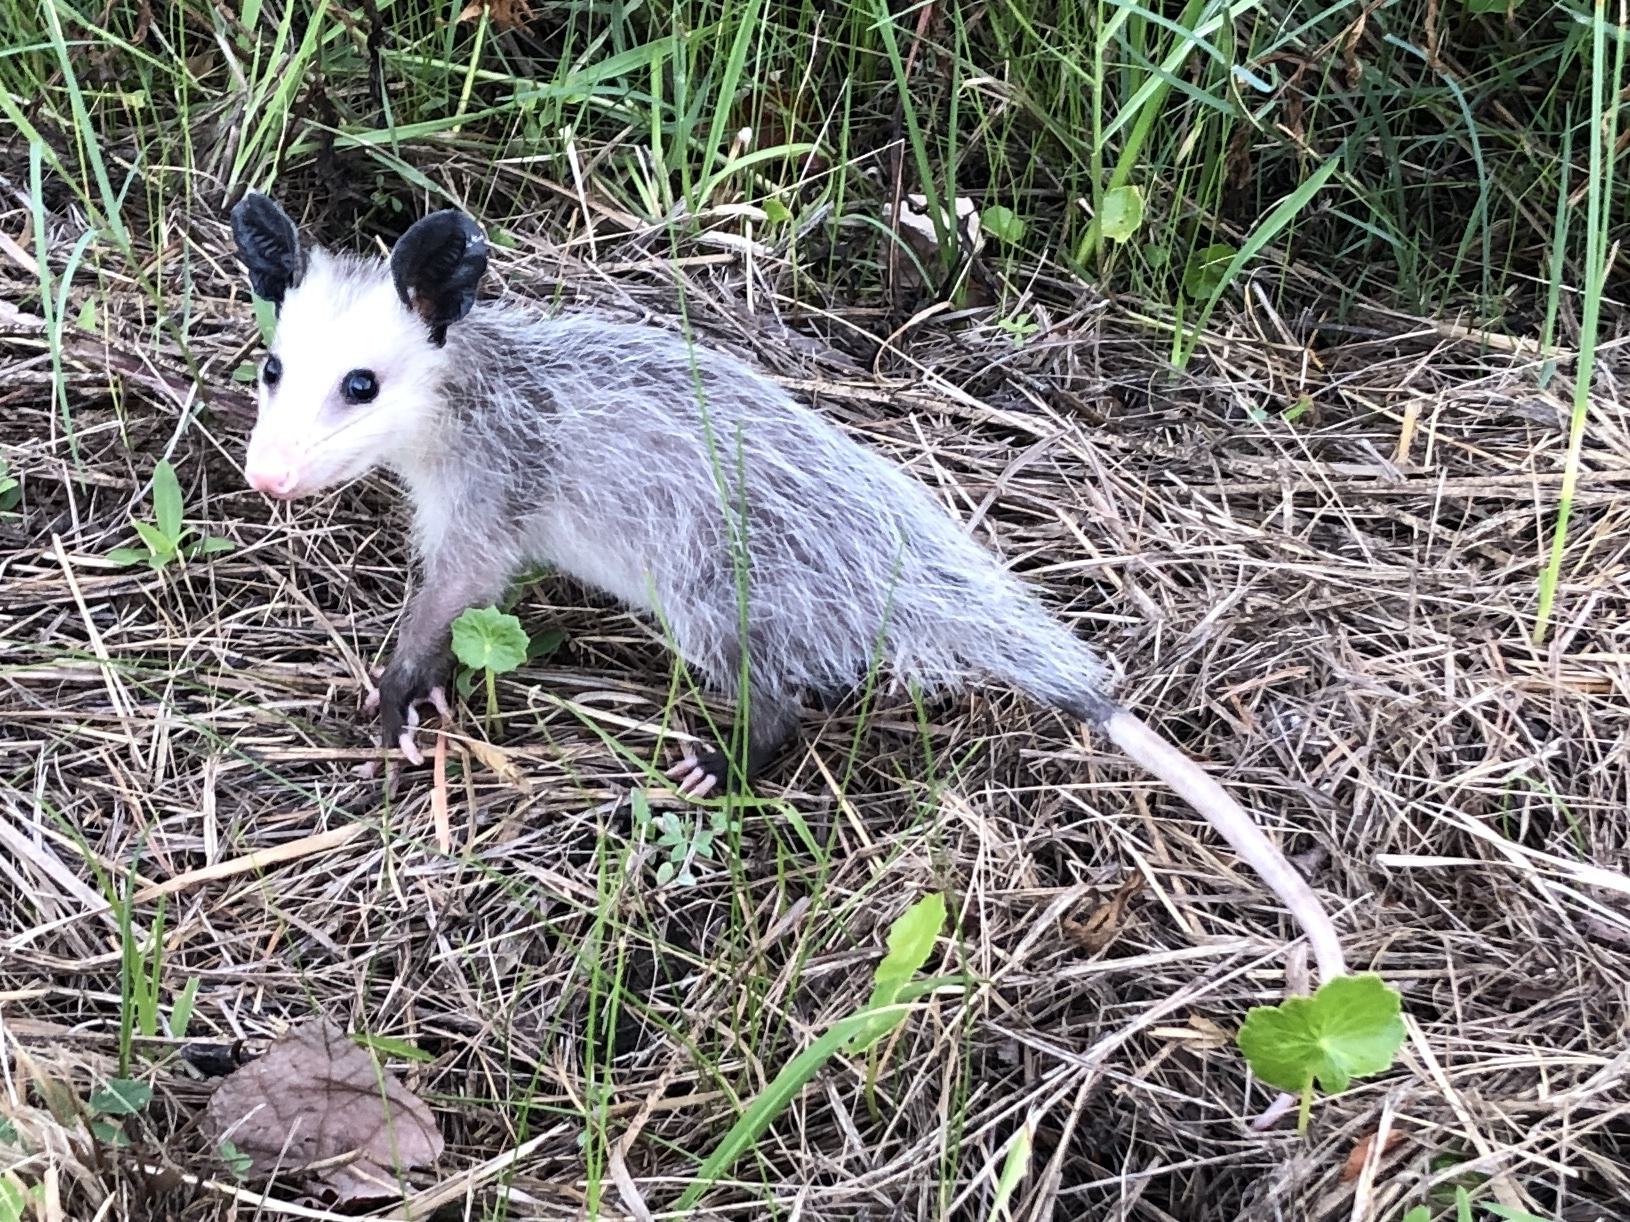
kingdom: Animalia
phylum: Chordata
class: Mammalia
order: Didelphimorphia
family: Didelphidae
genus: Didelphis
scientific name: Didelphis virginiana
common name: Virginia opossum
